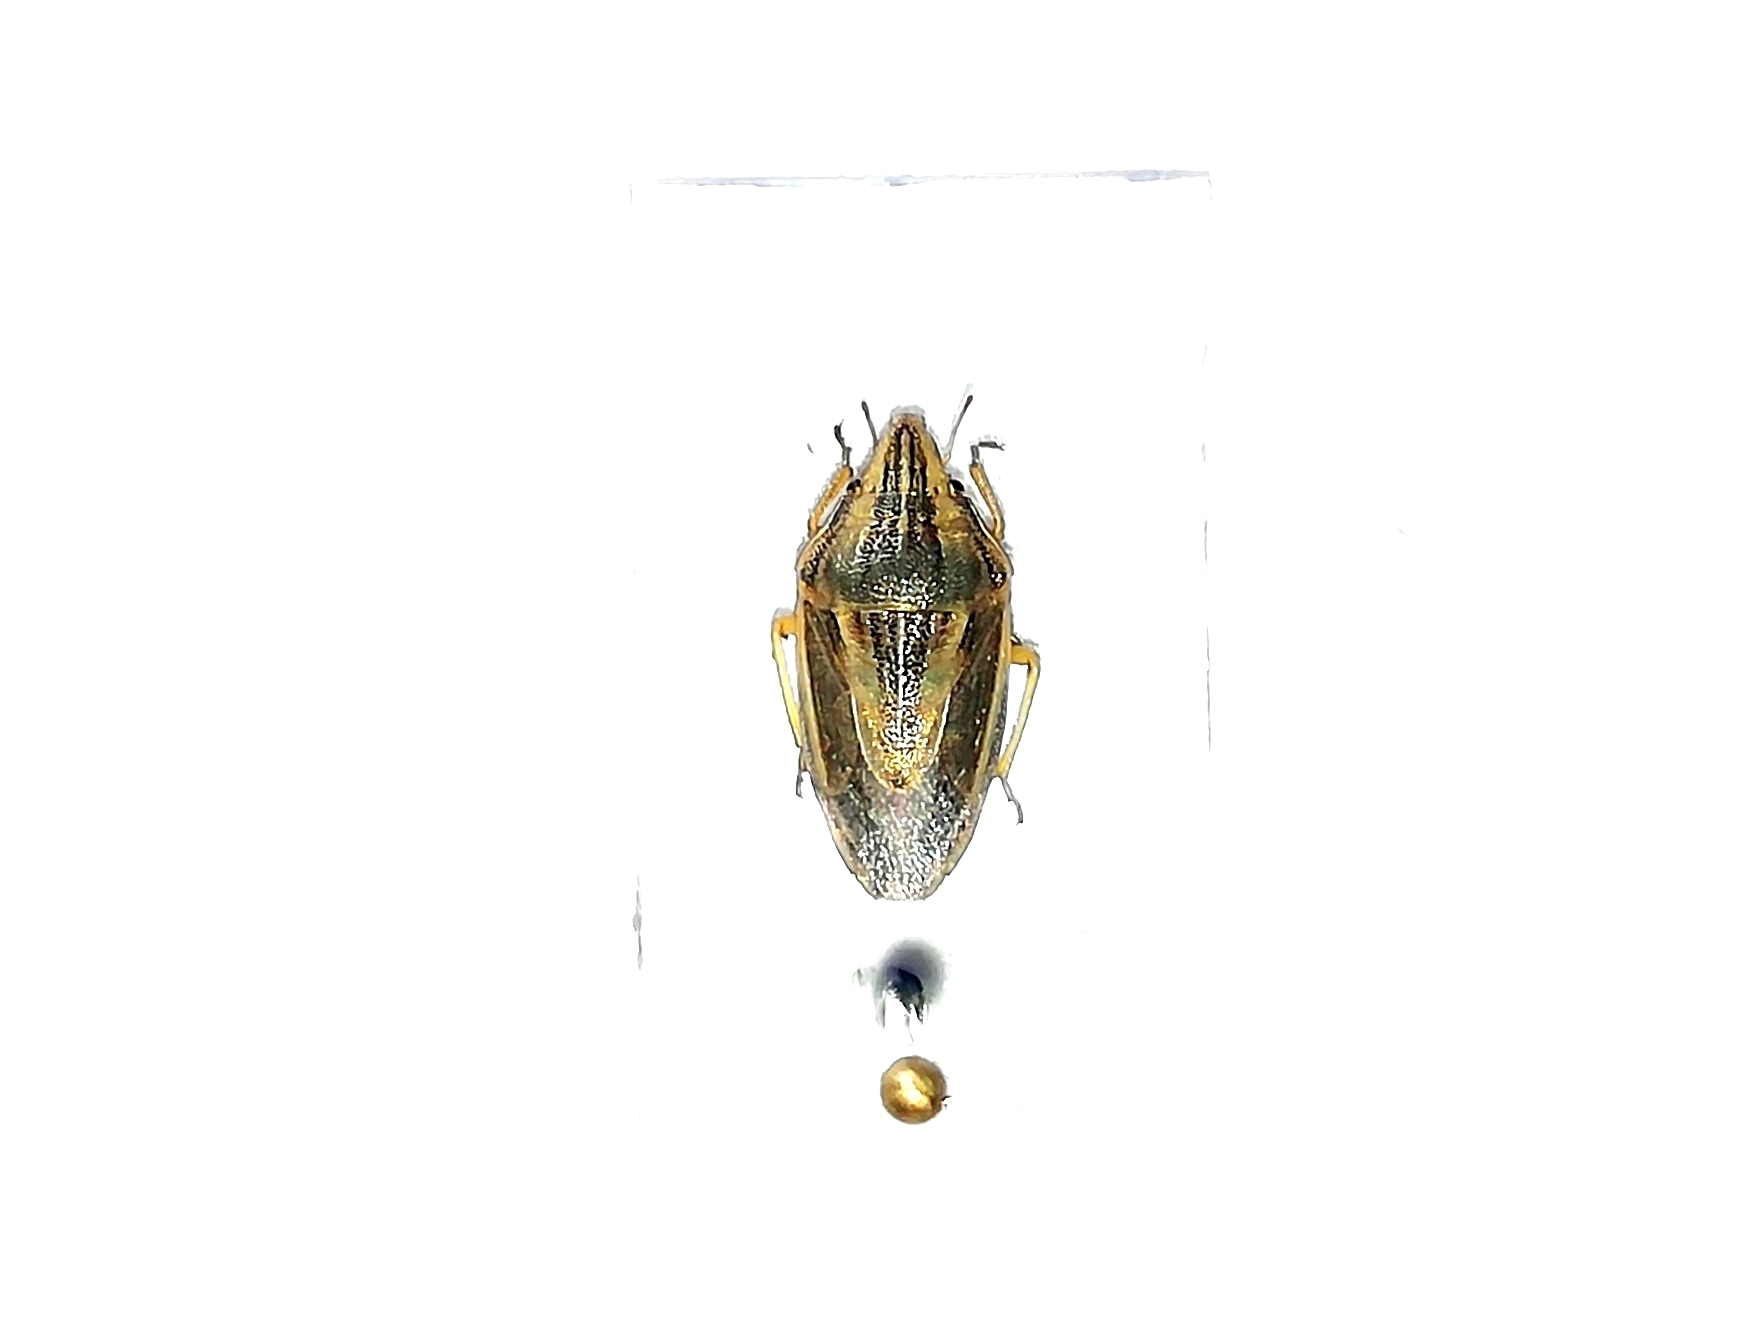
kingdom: Animalia
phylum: Arthropoda
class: Insecta
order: Hemiptera
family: Pentatomidae
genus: Aelia
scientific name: Aelia acuminata
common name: Bishop's mitre
